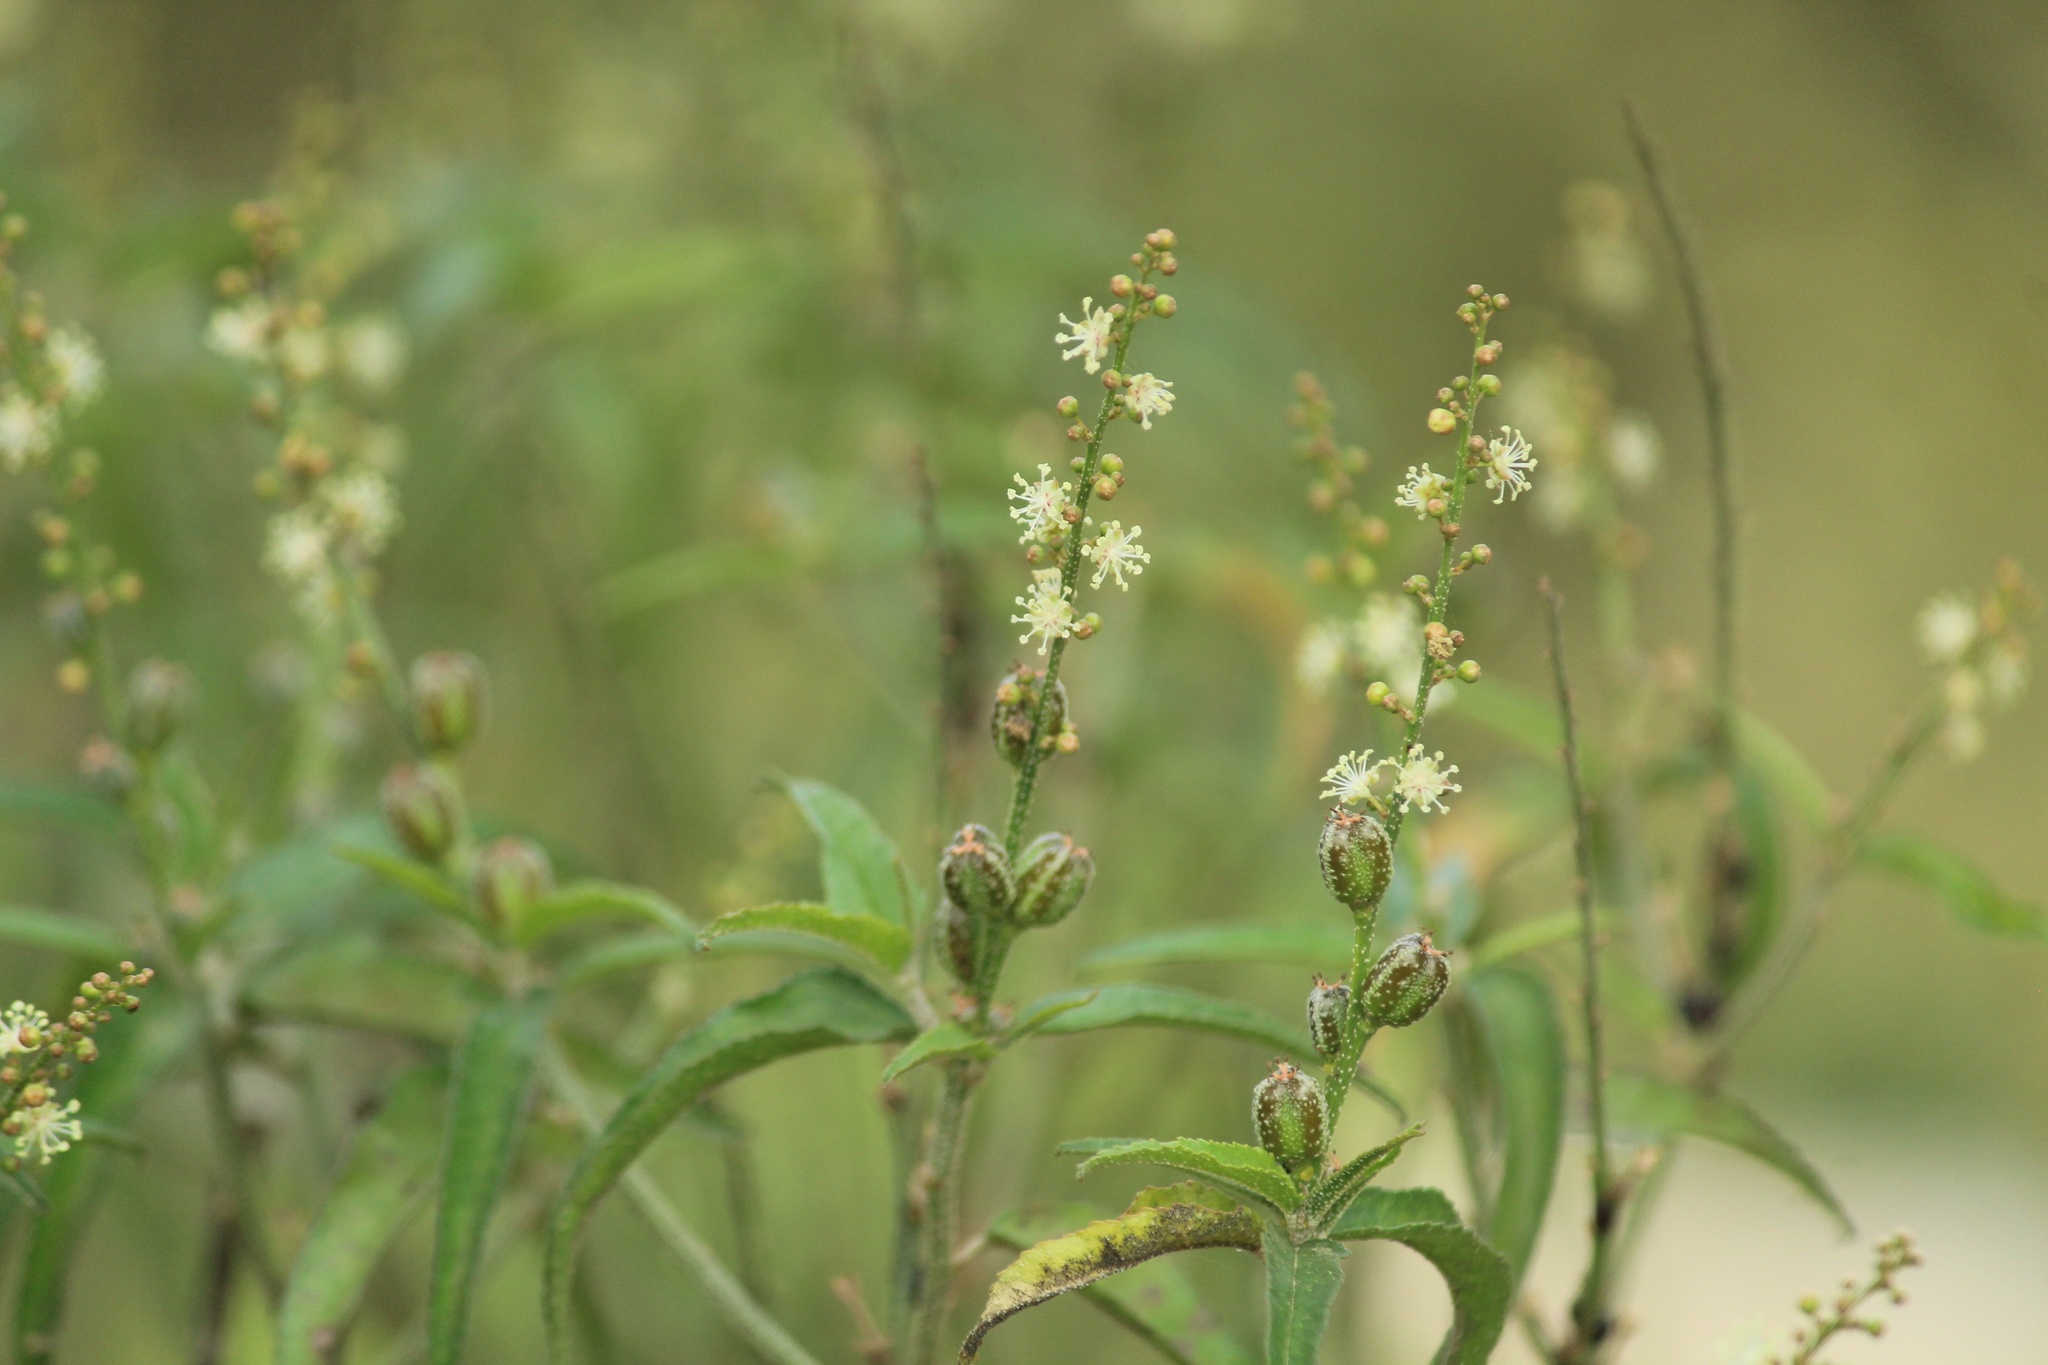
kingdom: Plantae
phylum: Tracheophyta
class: Magnoliopsida
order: Malpighiales
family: Euphorbiaceae
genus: Croton
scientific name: Croton bonplandianus
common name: Bonpland's croton
